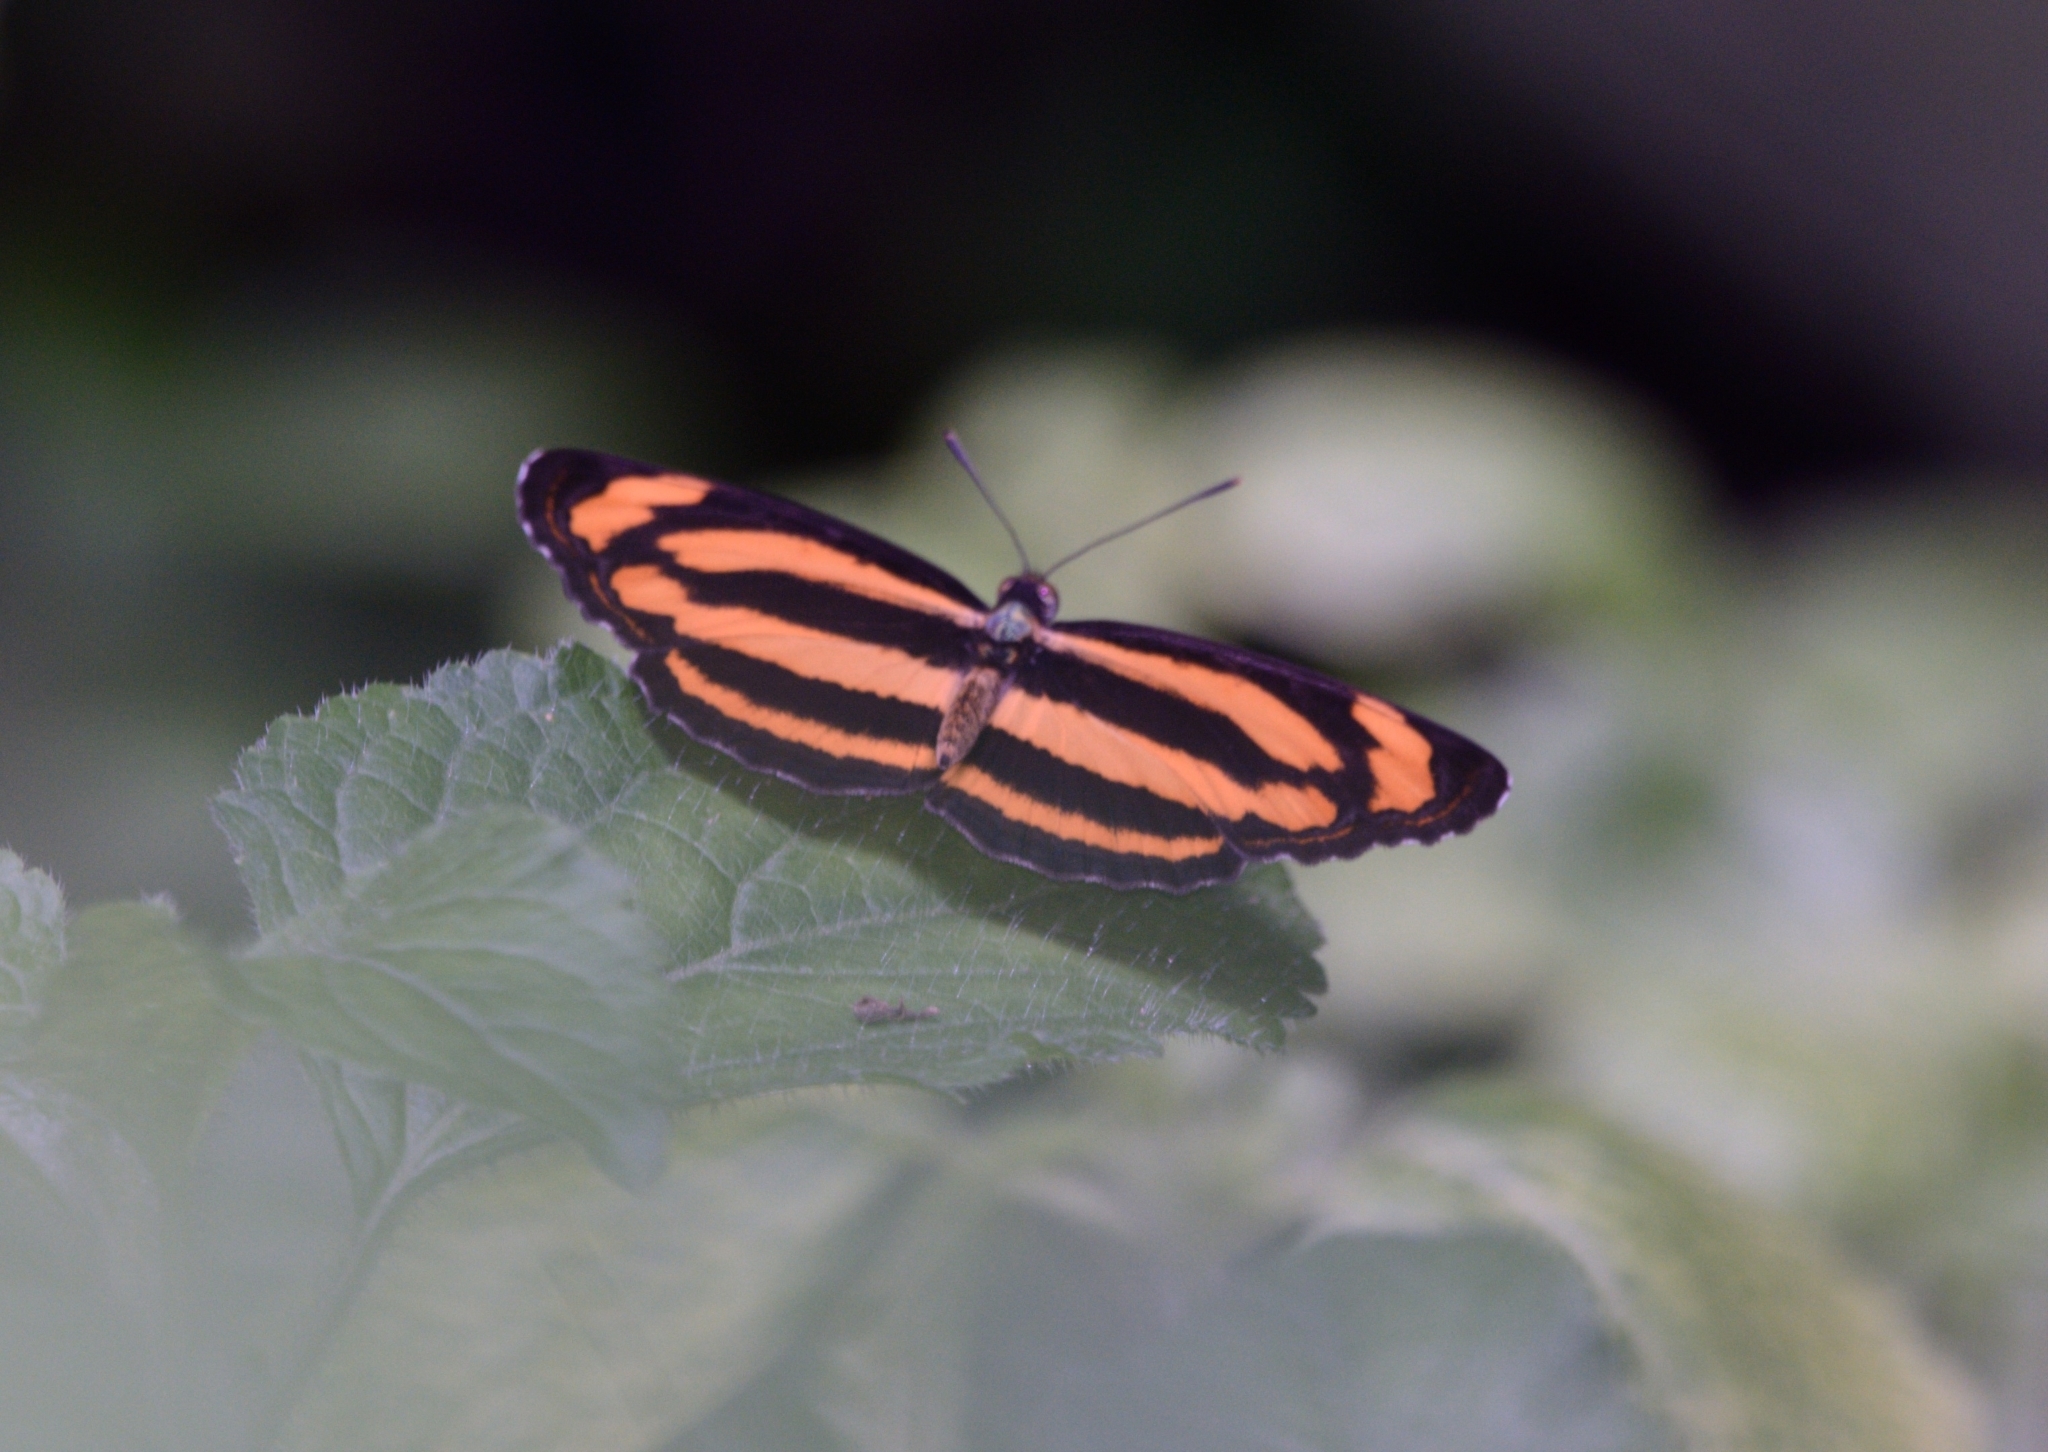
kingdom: Animalia
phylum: Arthropoda
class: Insecta
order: Lepidoptera
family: Nymphalidae
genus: Pantoporia
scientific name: Pantoporia hordonia
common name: Common lascar
